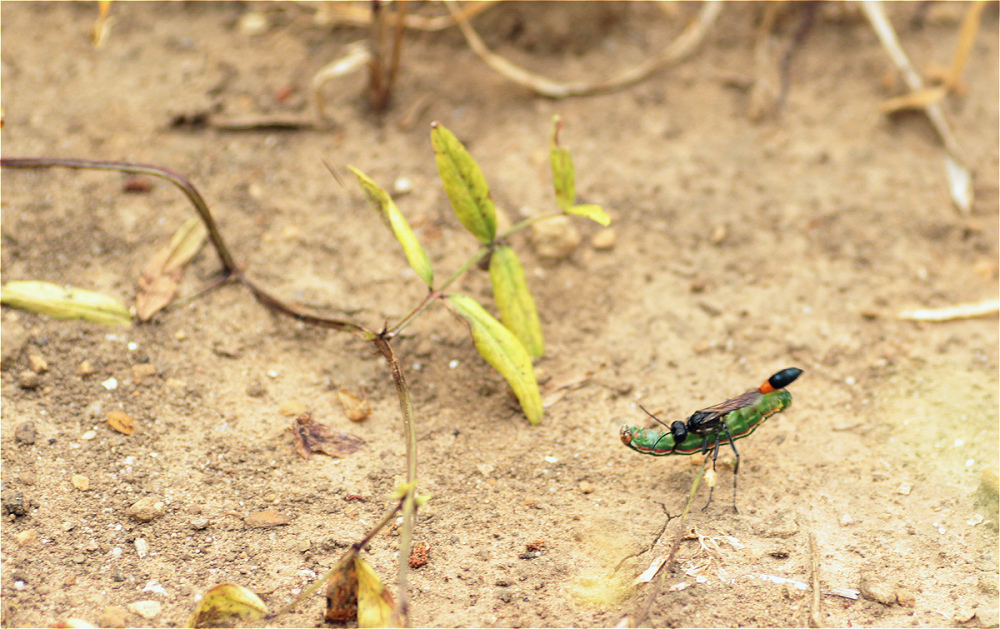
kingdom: Animalia
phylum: Arthropoda
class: Insecta
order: Hymenoptera
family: Sphecidae
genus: Ammophila
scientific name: Ammophila sabulosa
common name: Red banded sand wasp
